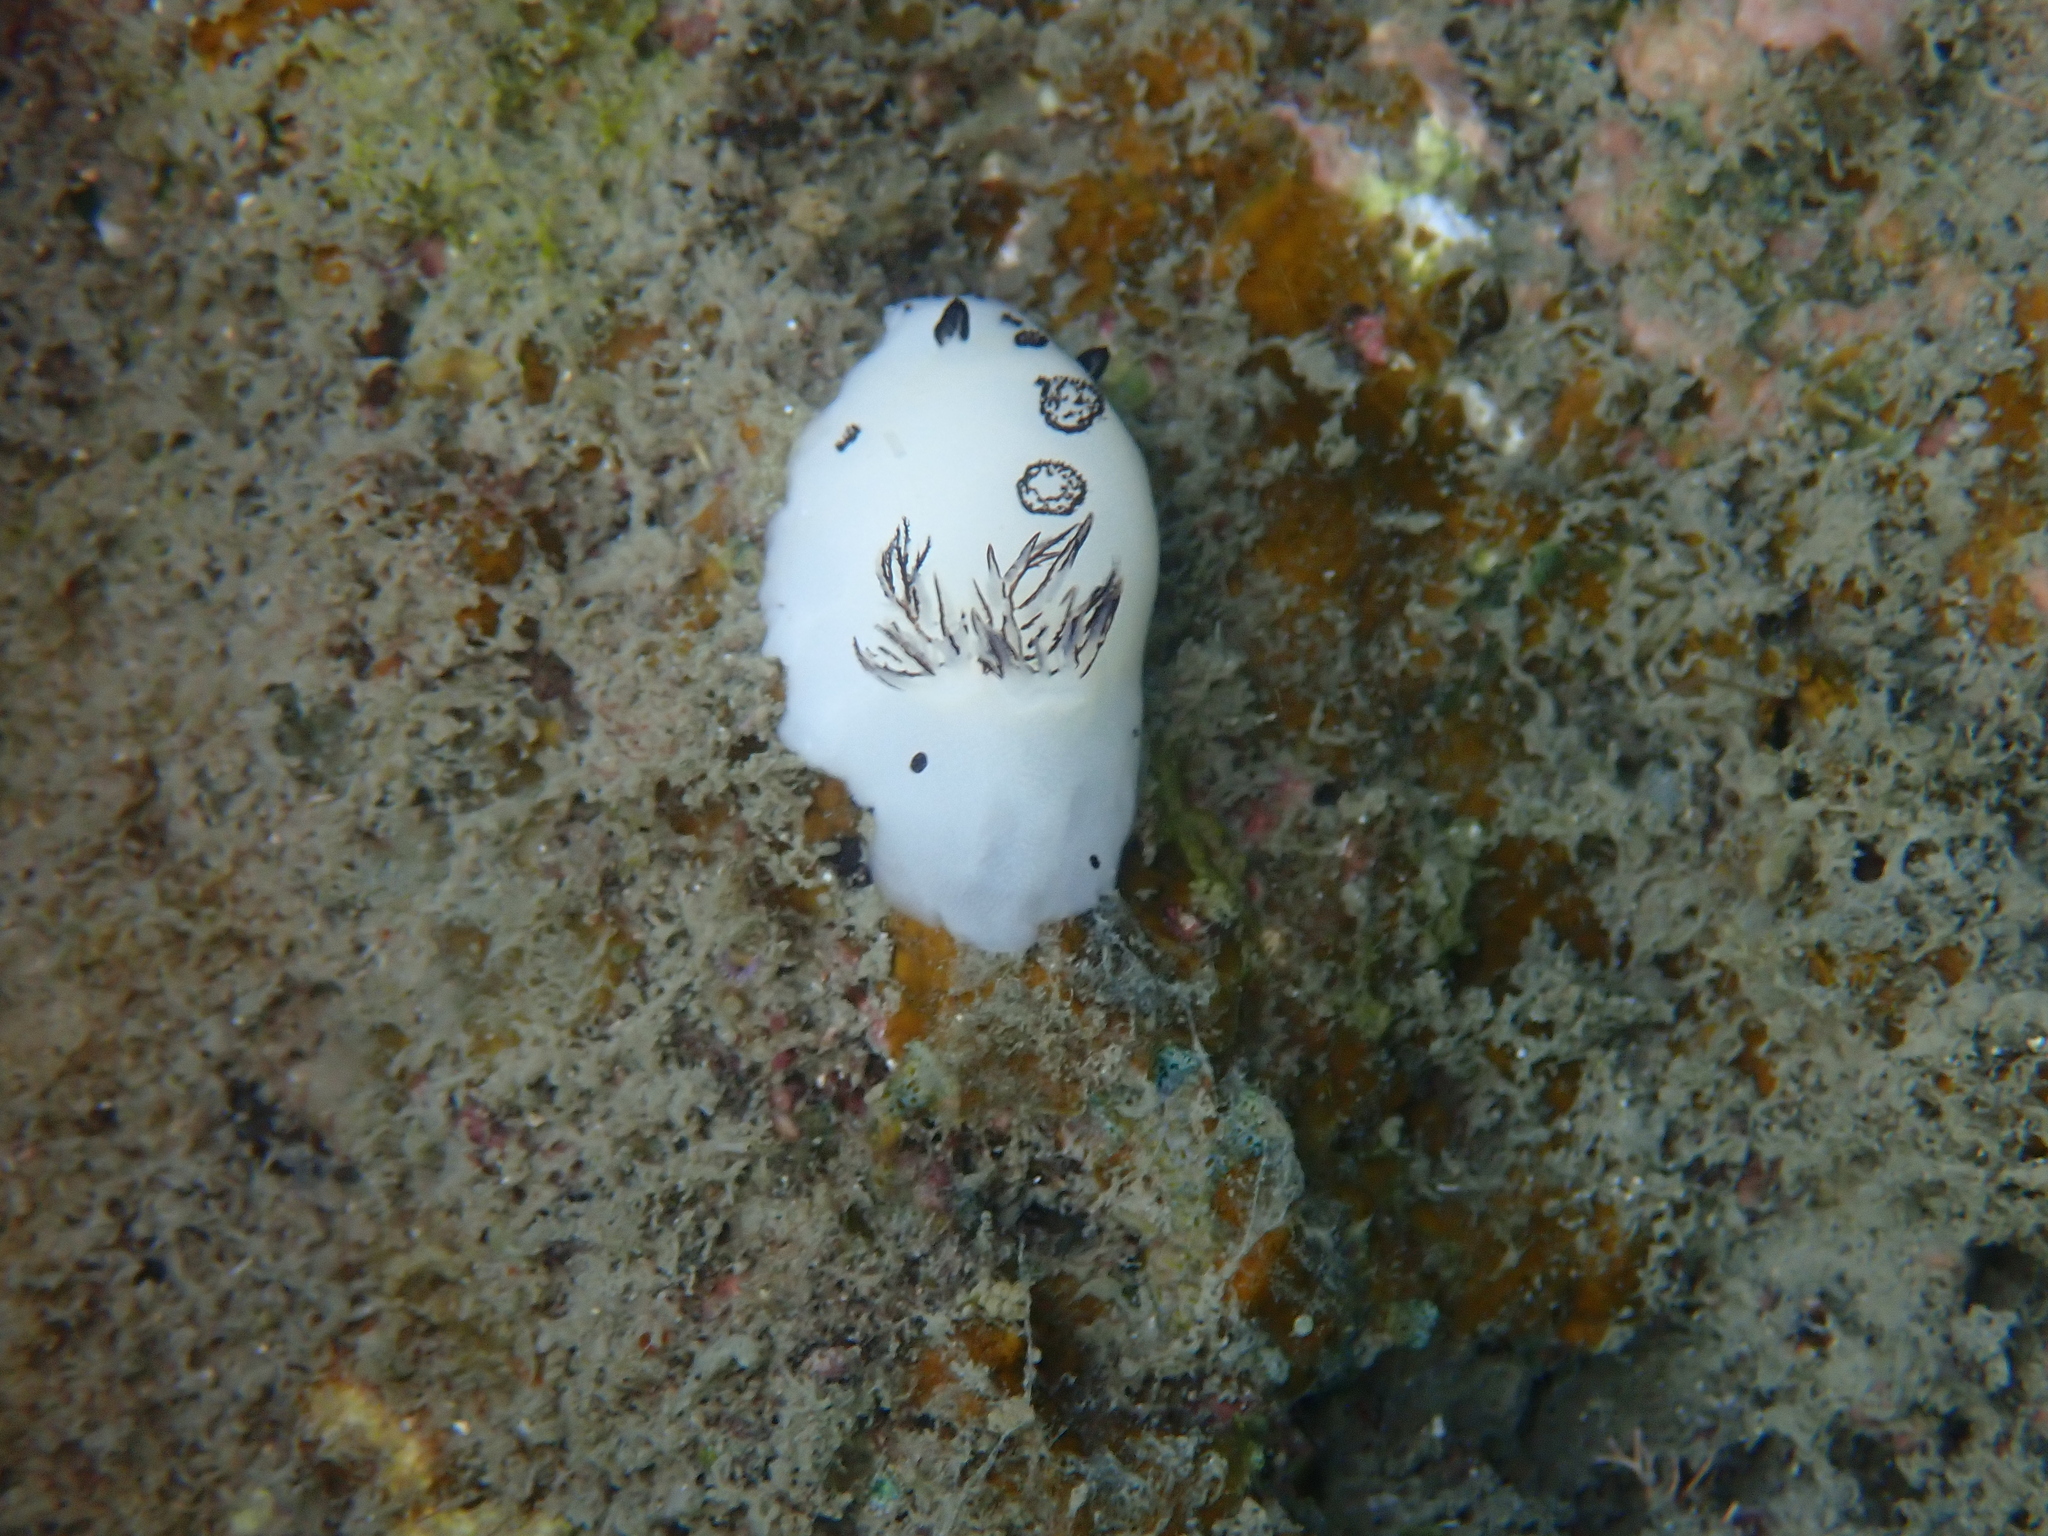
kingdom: Animalia
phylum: Mollusca
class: Gastropoda
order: Nudibranchia
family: Discodorididae
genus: Jorunna
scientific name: Jorunna funebris
